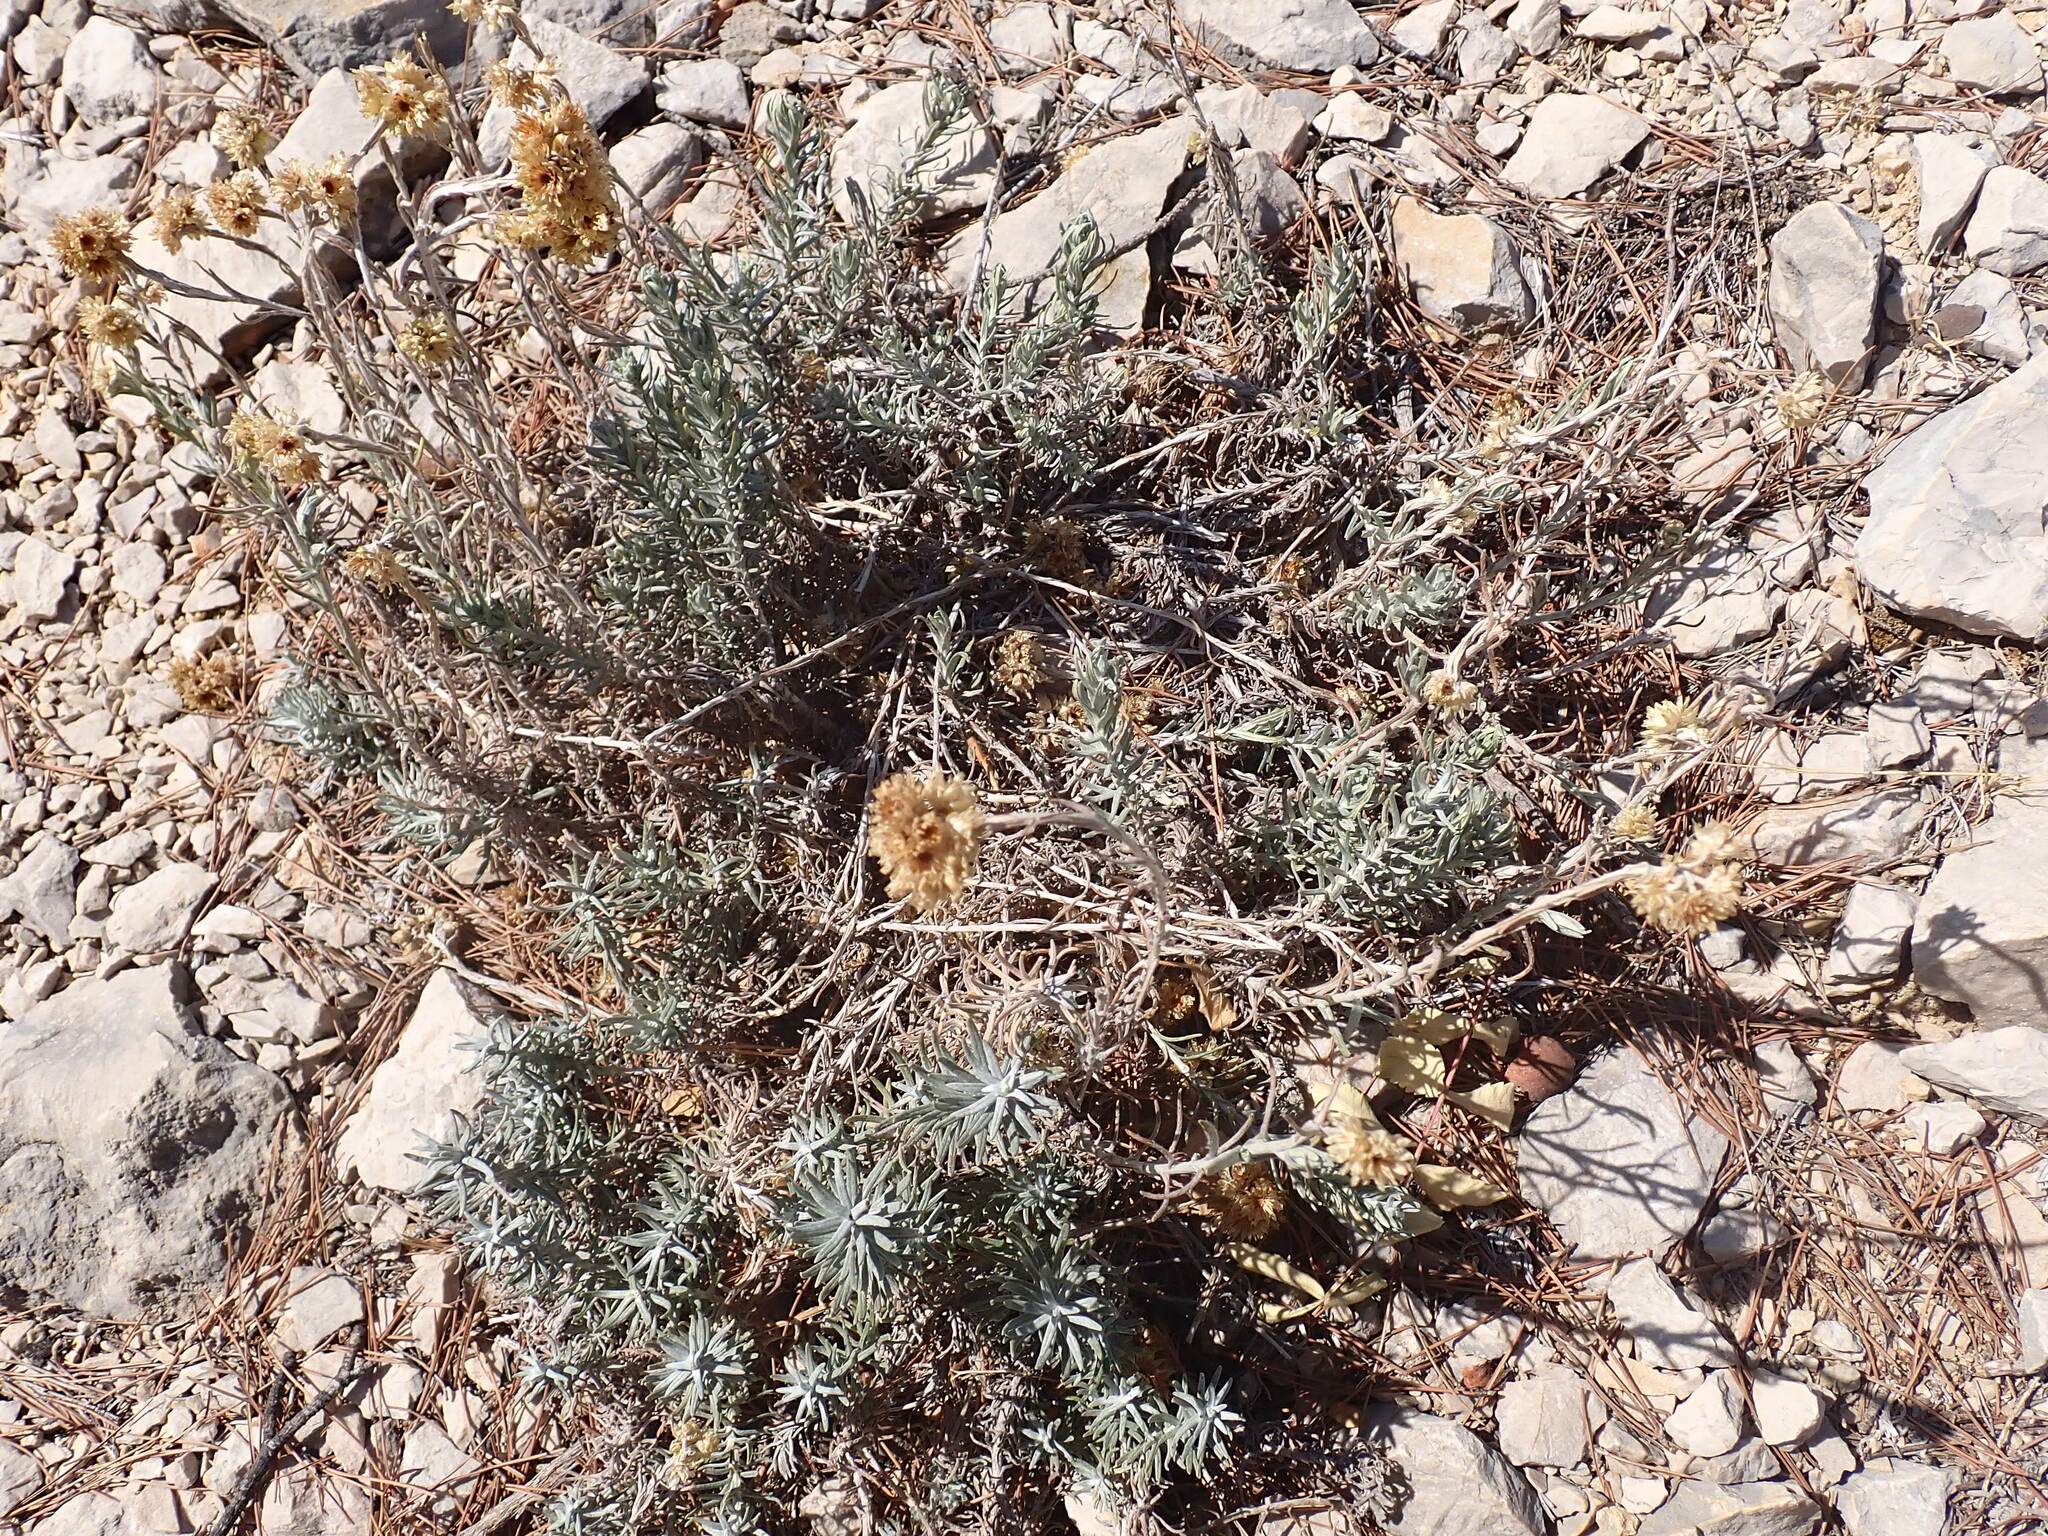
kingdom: Plantae
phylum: Tracheophyta
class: Magnoliopsida
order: Asterales
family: Asteraceae
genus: Helichrysum
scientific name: Helichrysum stoechas
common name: Goldilocks
